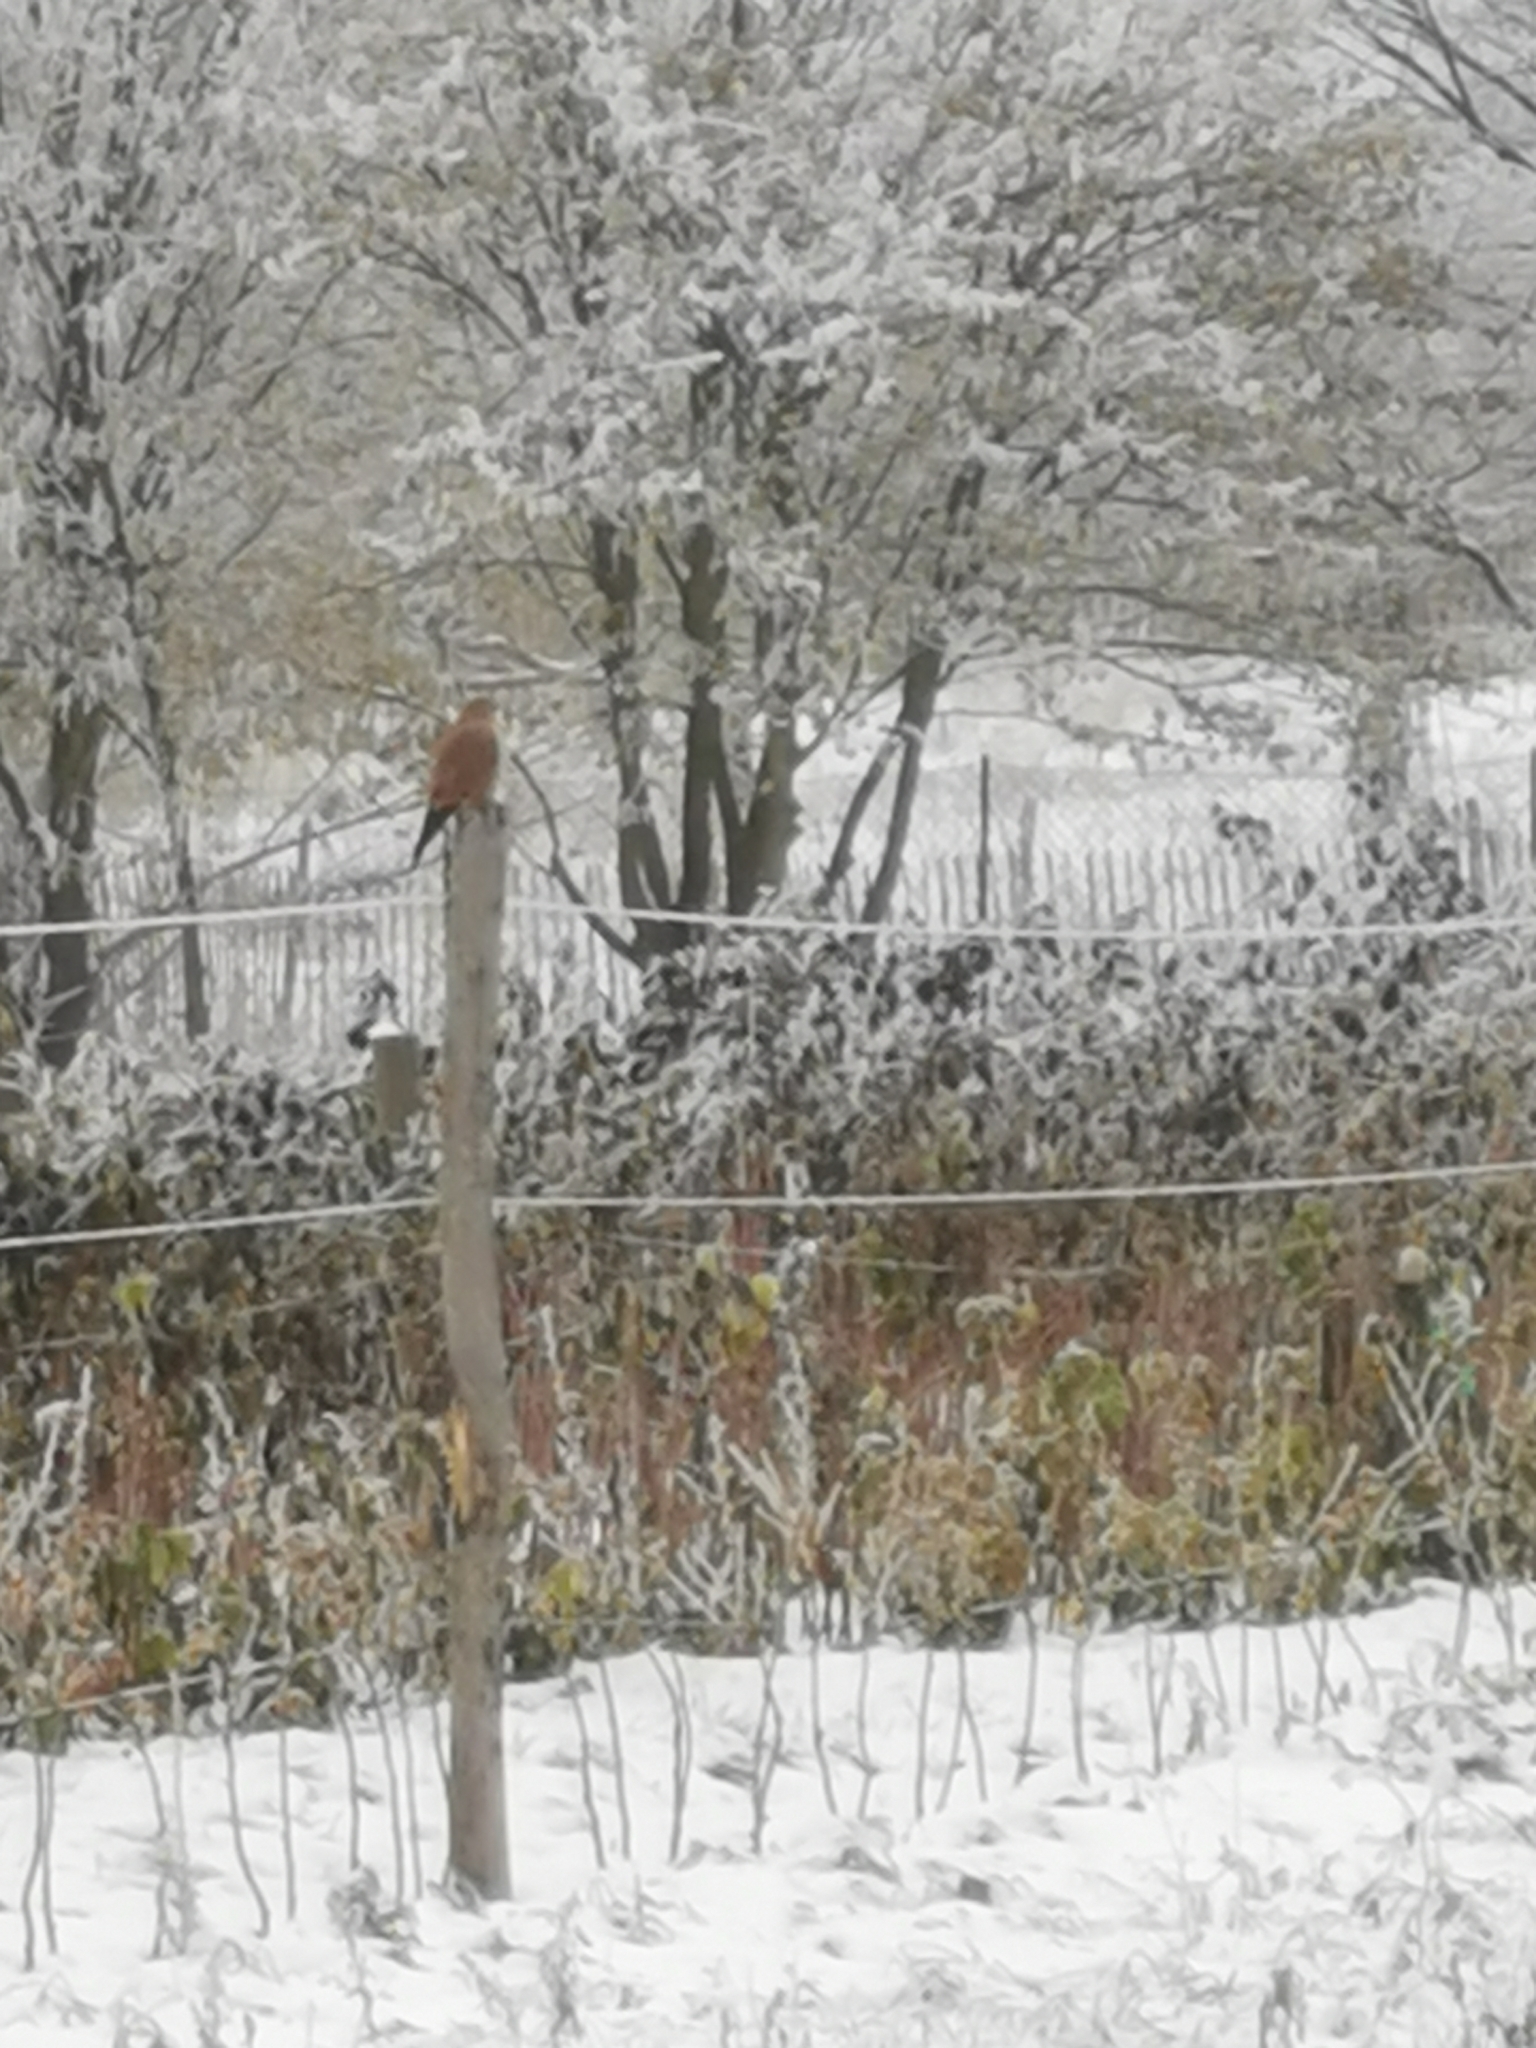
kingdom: Animalia
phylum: Chordata
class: Aves
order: Falconiformes
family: Falconidae
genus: Falco
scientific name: Falco tinnunculus
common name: Common kestrel
